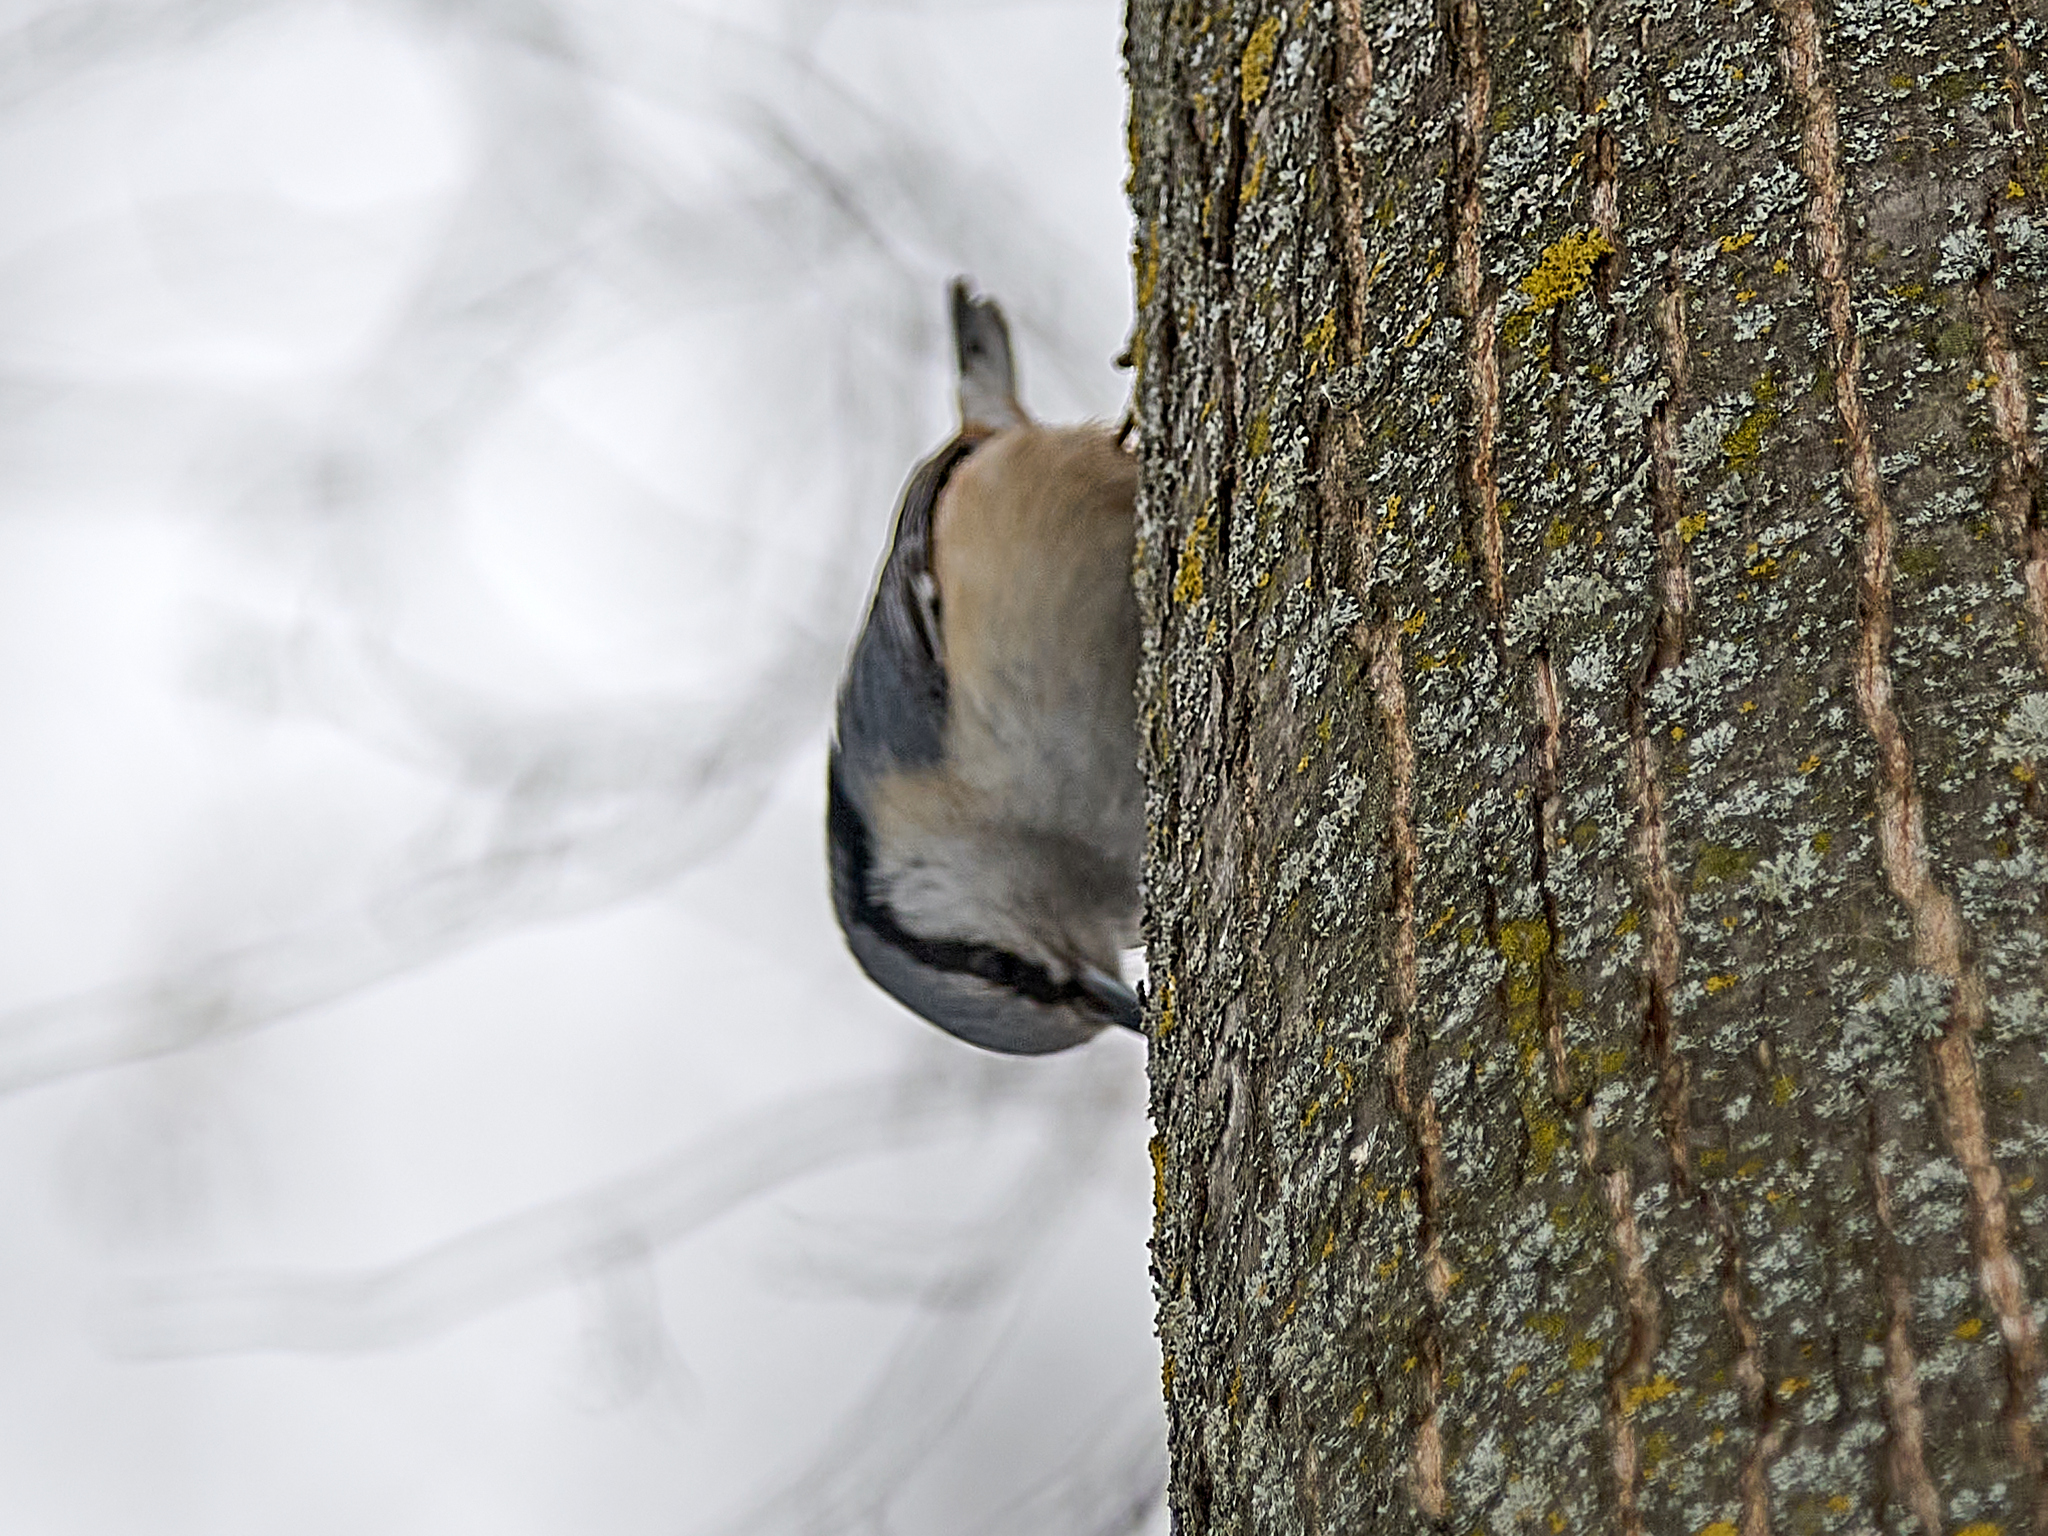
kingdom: Animalia
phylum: Chordata
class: Aves
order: Passeriformes
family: Sittidae
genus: Sitta
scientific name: Sitta europaea
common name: Eurasian nuthatch
